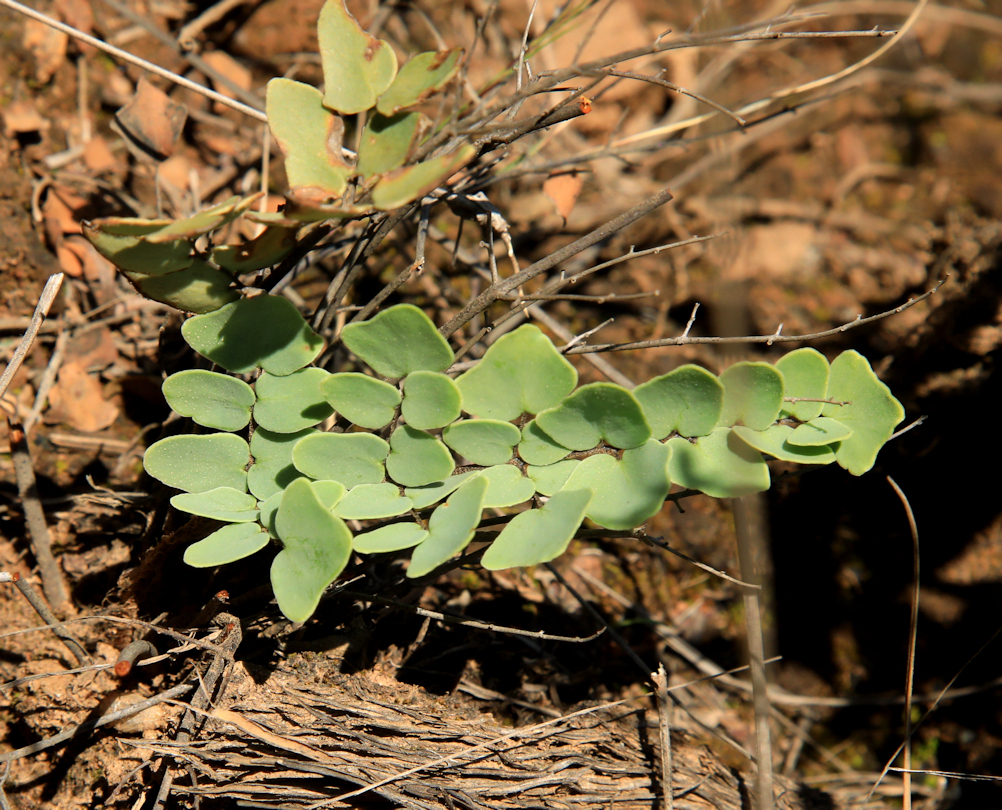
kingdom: Plantae
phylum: Tracheophyta
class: Polypodiopsida
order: Polypodiales
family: Pteridaceae
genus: Pellaea
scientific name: Pellaea calomelanos
